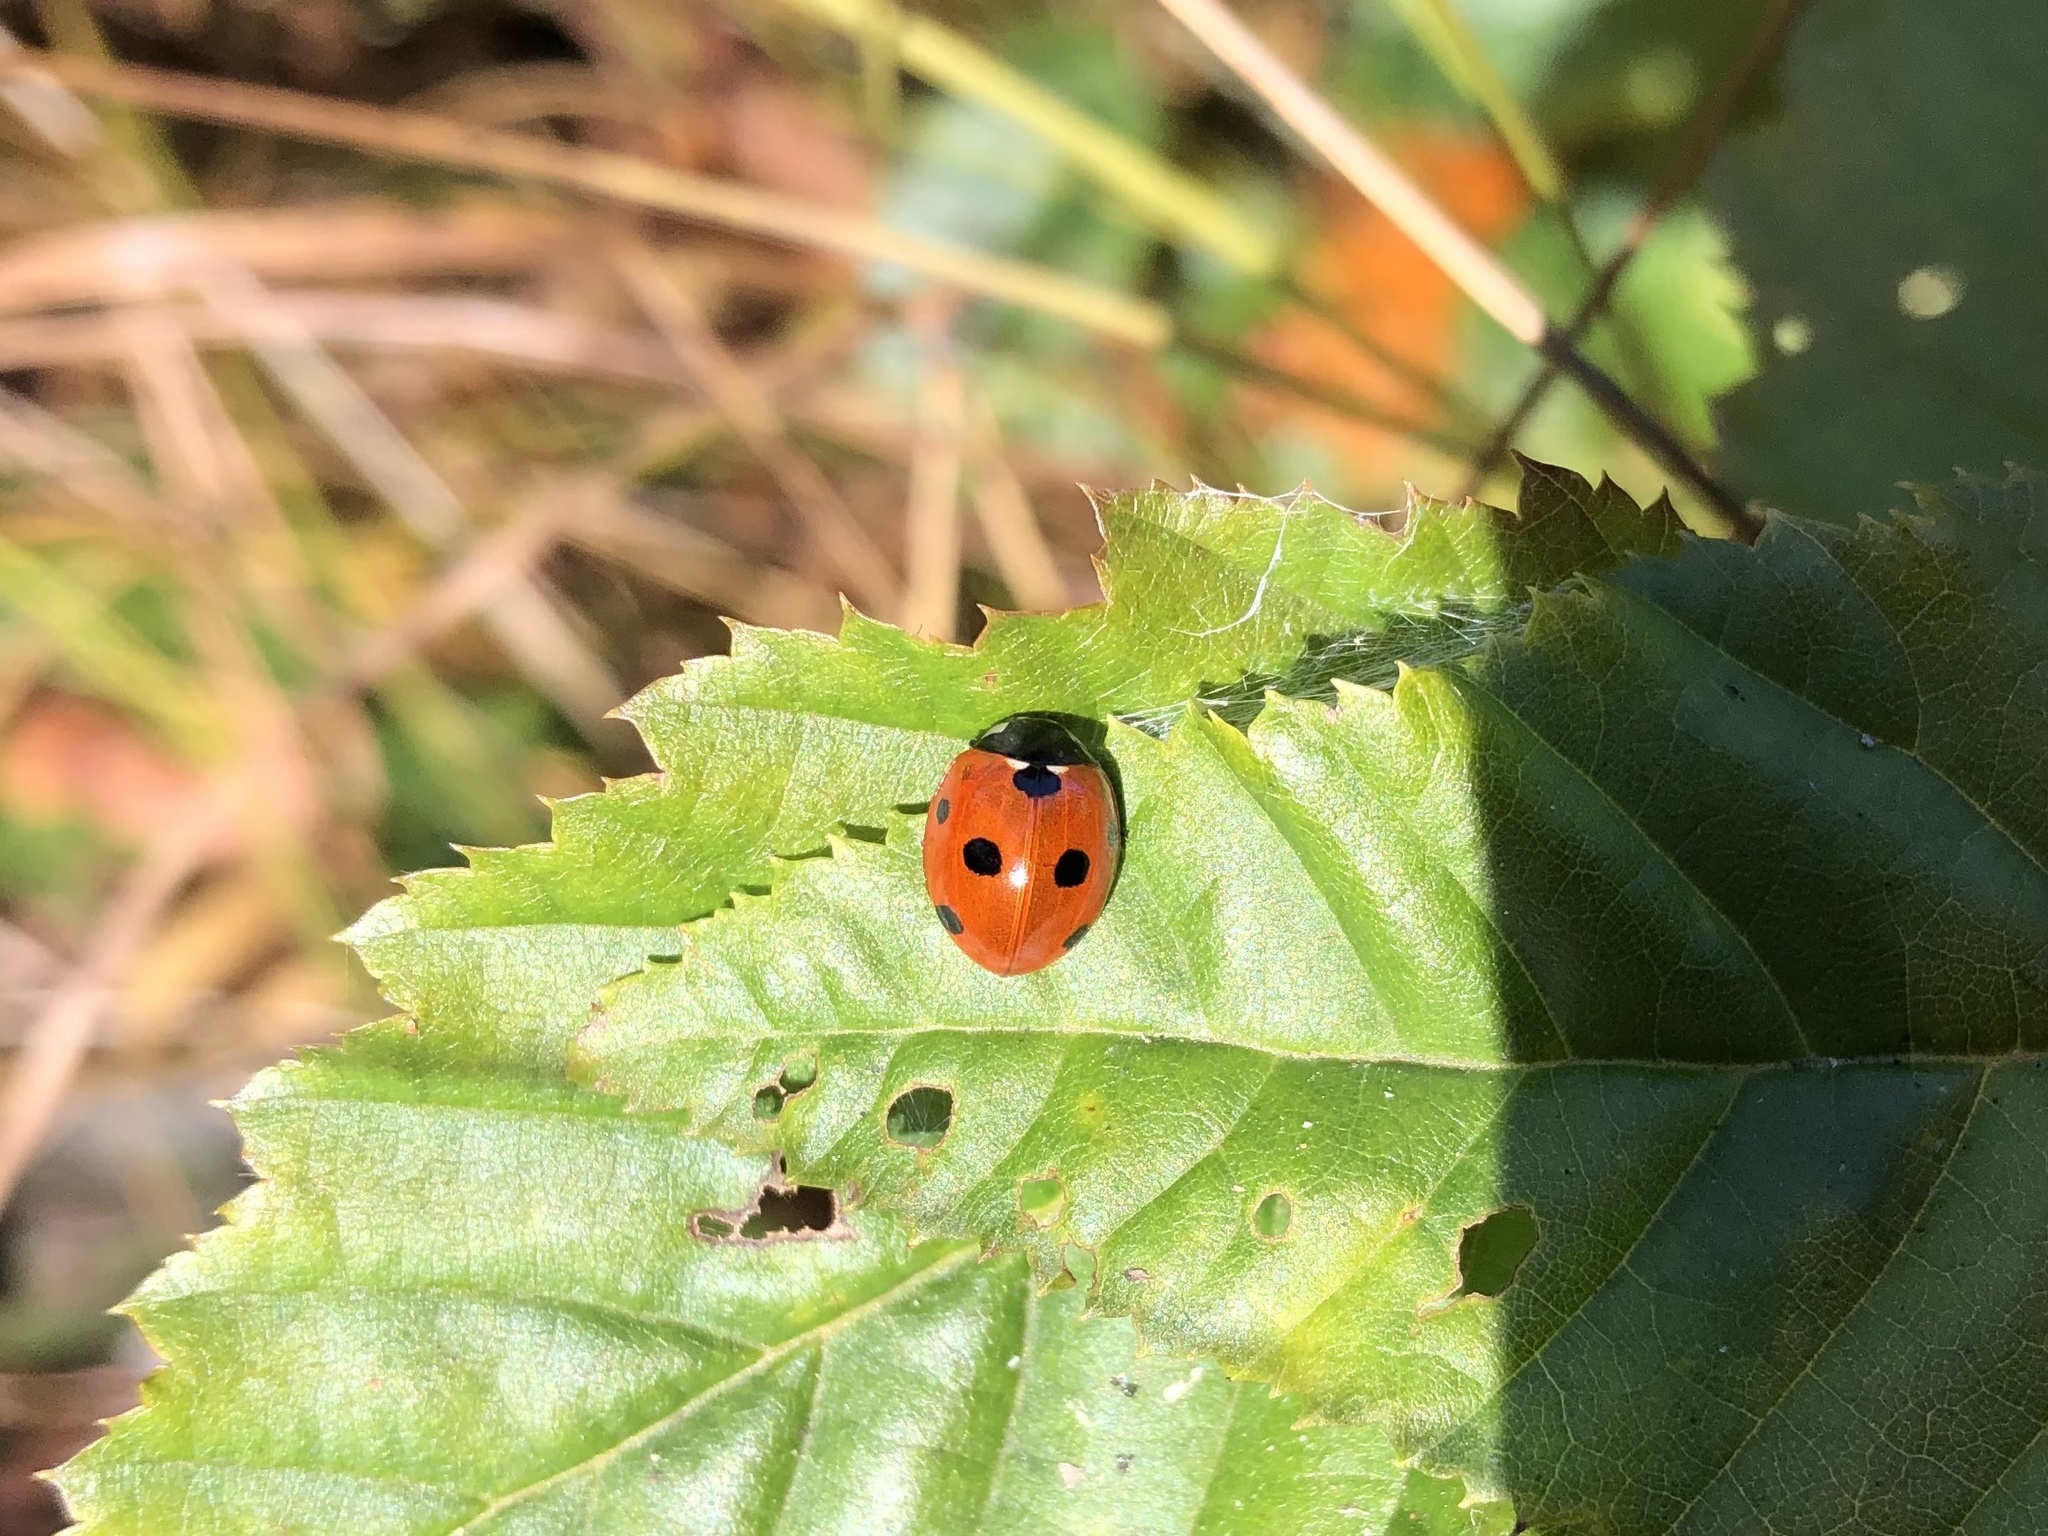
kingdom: Animalia
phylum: Arthropoda
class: Insecta
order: Coleoptera
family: Coccinellidae
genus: Coccinella
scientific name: Coccinella septempunctata
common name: Sevenspotted lady beetle
